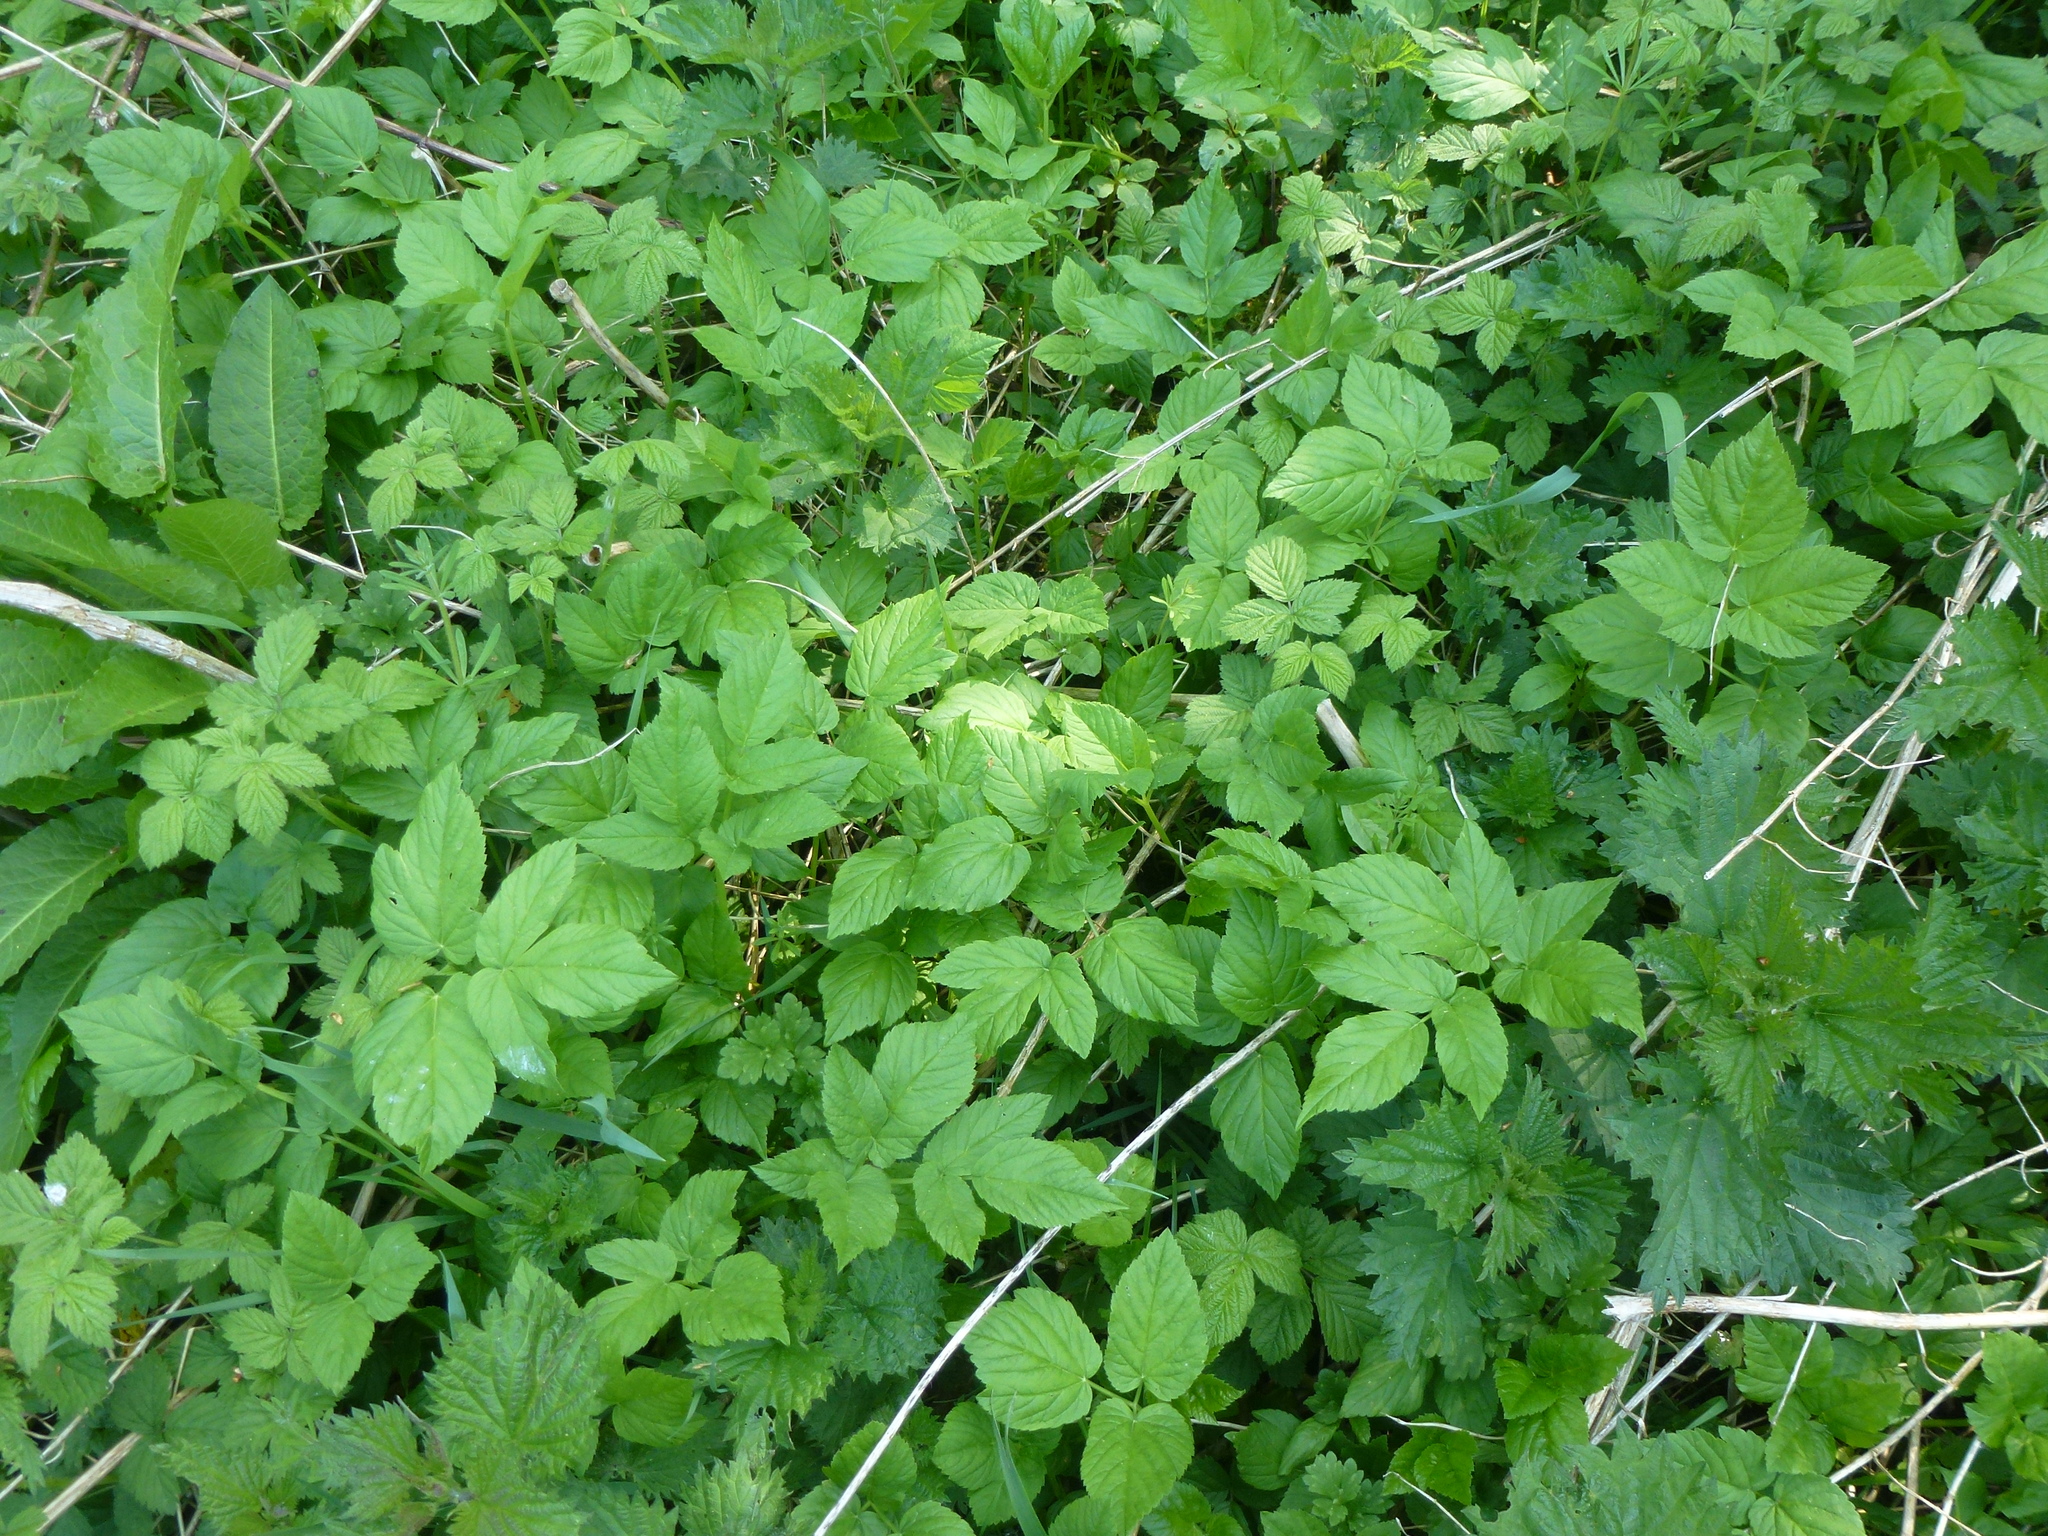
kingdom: Plantae
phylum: Tracheophyta
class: Magnoliopsida
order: Apiales
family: Apiaceae
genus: Aegopodium
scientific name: Aegopodium podagraria
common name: Ground-elder
